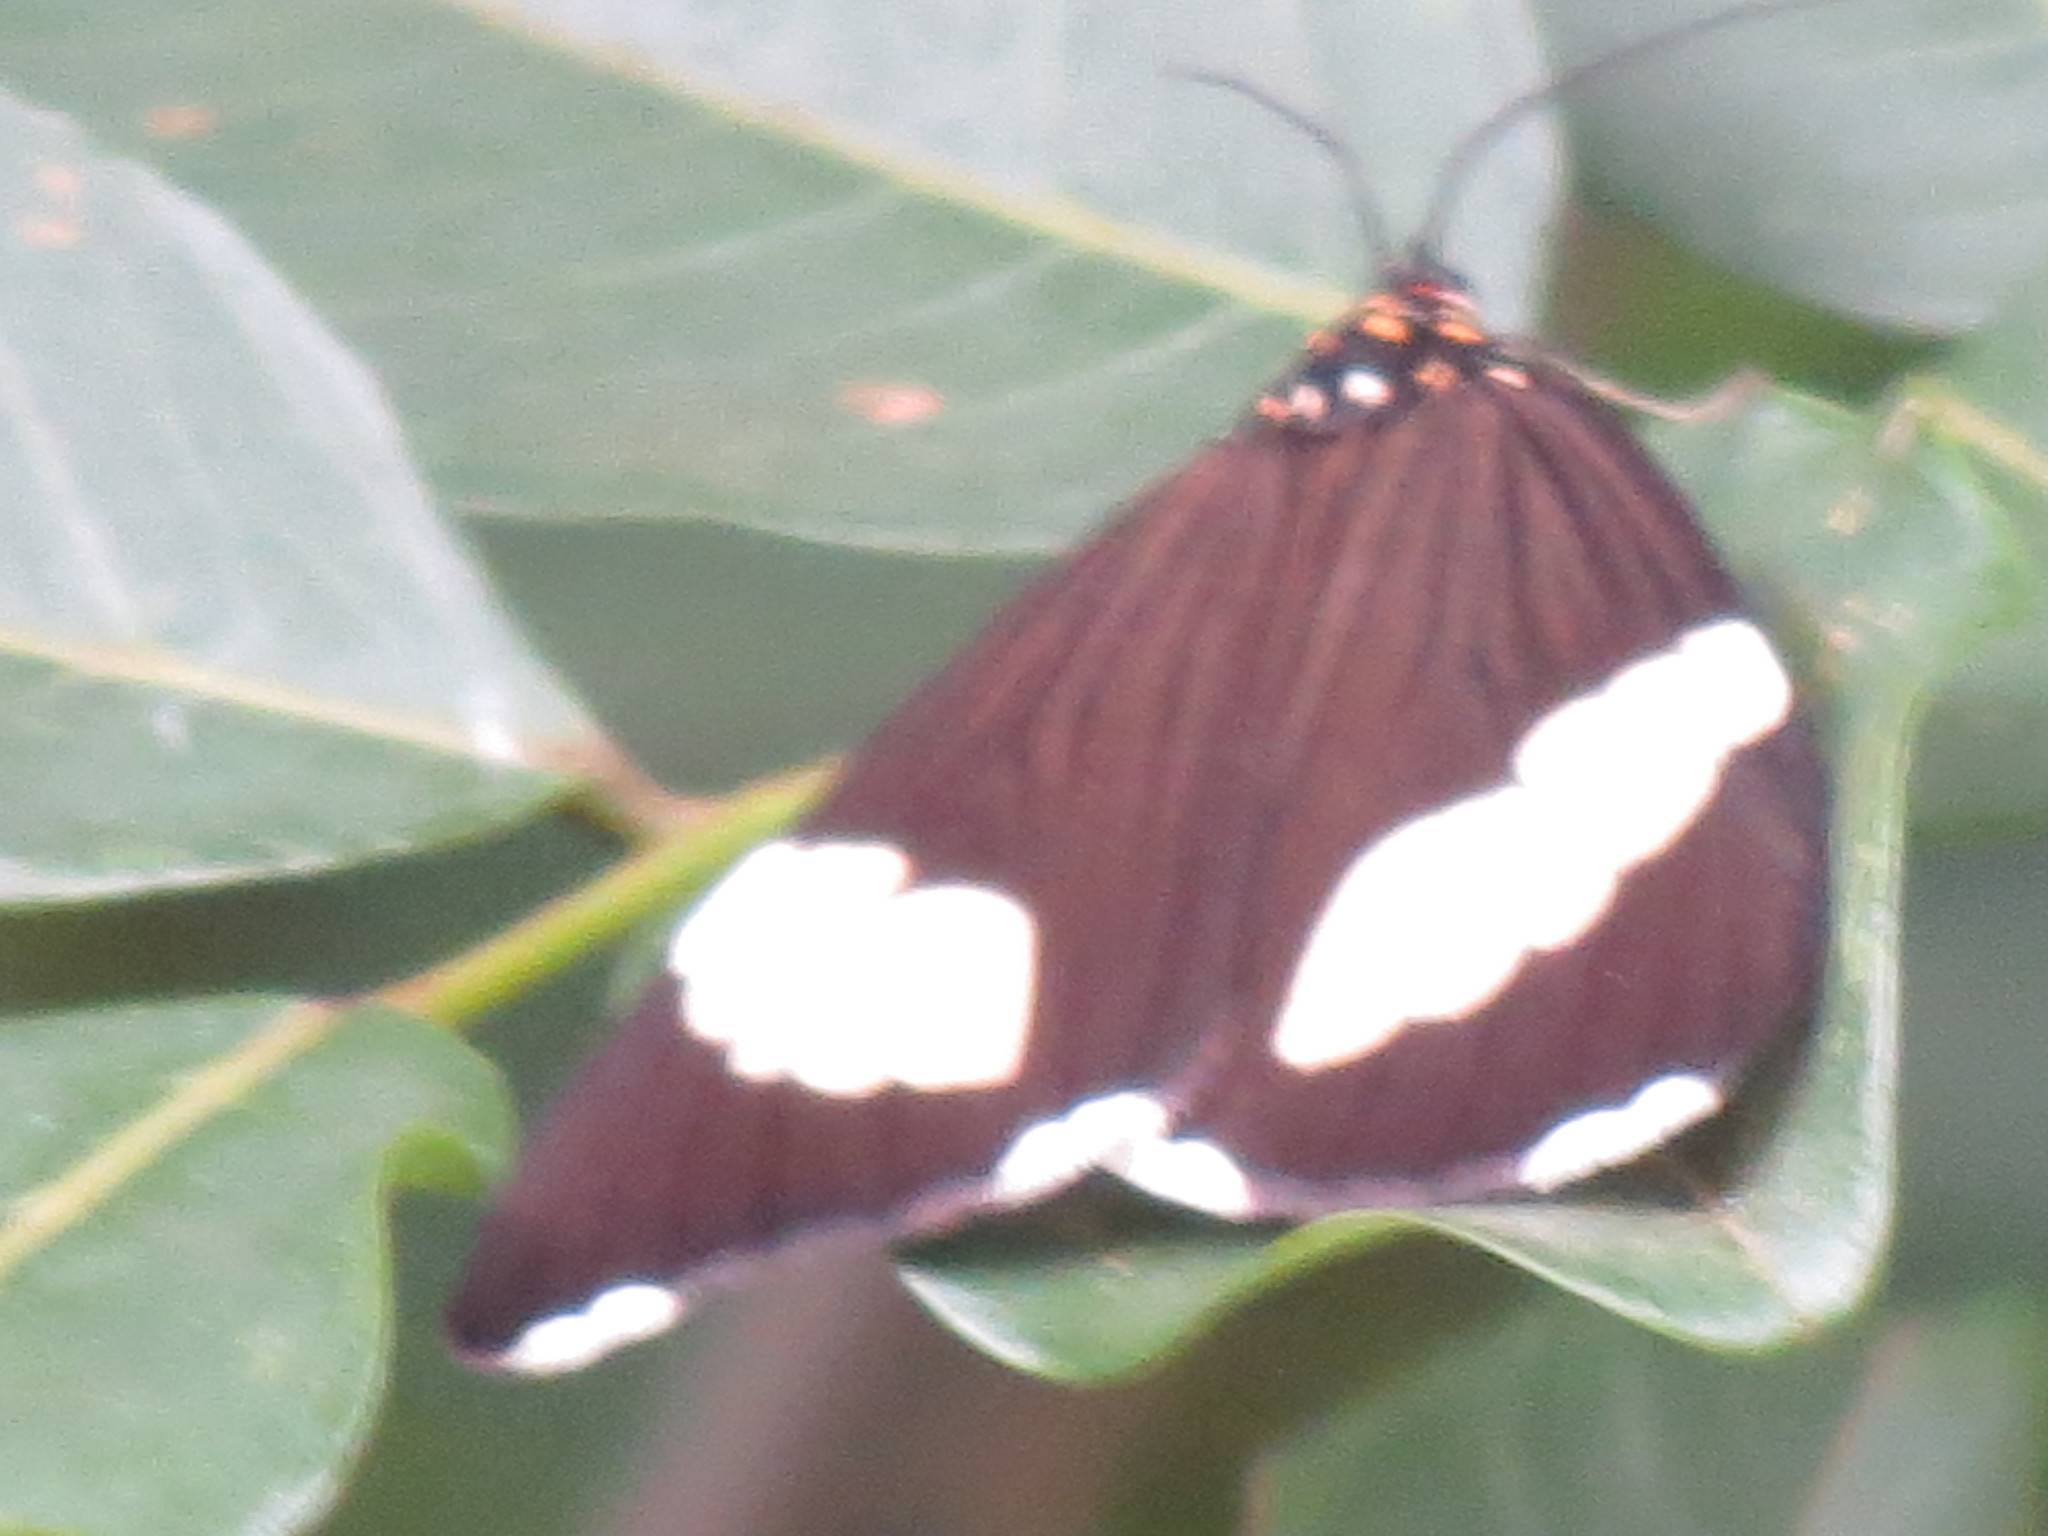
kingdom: Animalia
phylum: Arthropoda
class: Insecta
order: Lepidoptera
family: Erebidae
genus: Nyctemera
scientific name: Nyctemera
